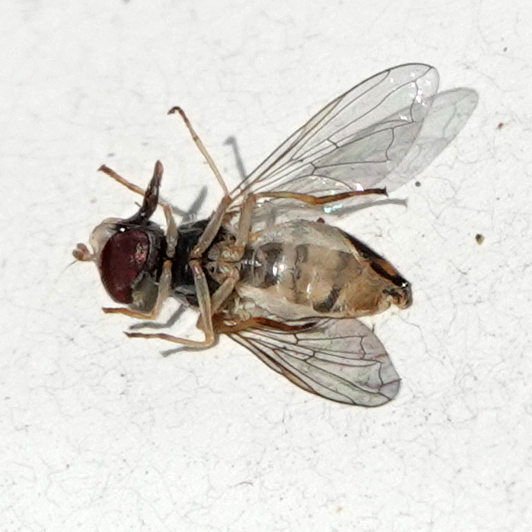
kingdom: Animalia
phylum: Arthropoda
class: Insecta
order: Diptera
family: Syrphidae
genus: Toxomerus
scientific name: Toxomerus
